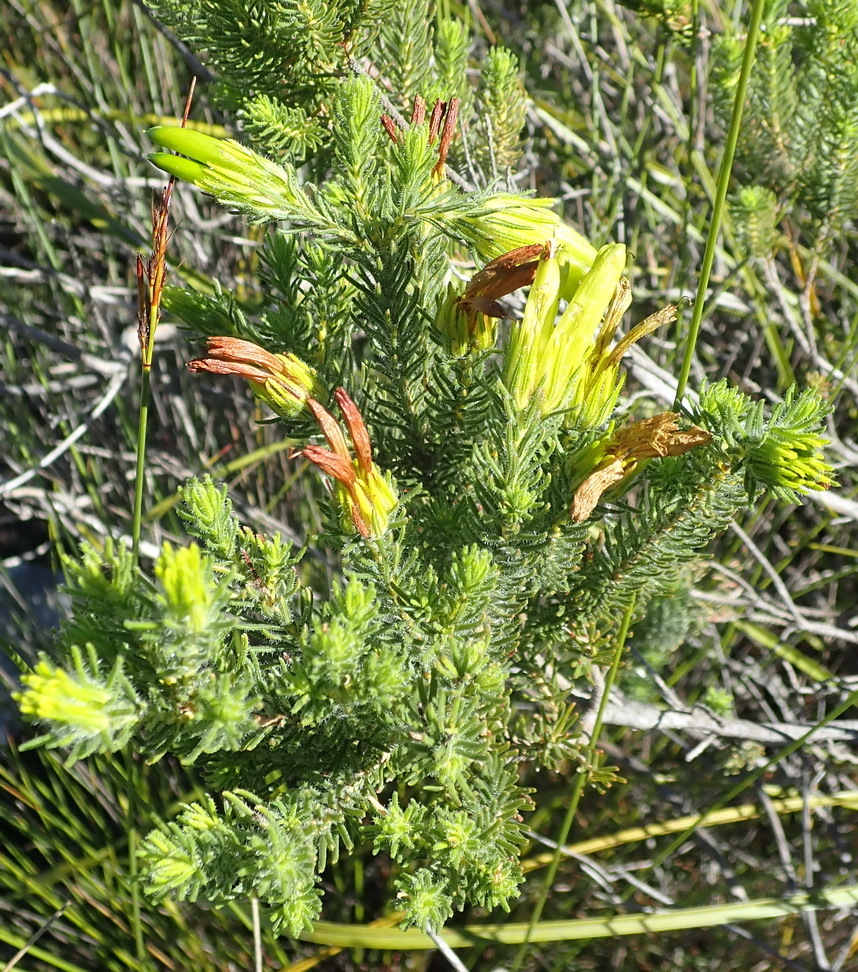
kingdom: Plantae
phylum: Tracheophyta
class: Magnoliopsida
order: Ericales
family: Ericaceae
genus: Erica
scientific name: Erica unicolor
